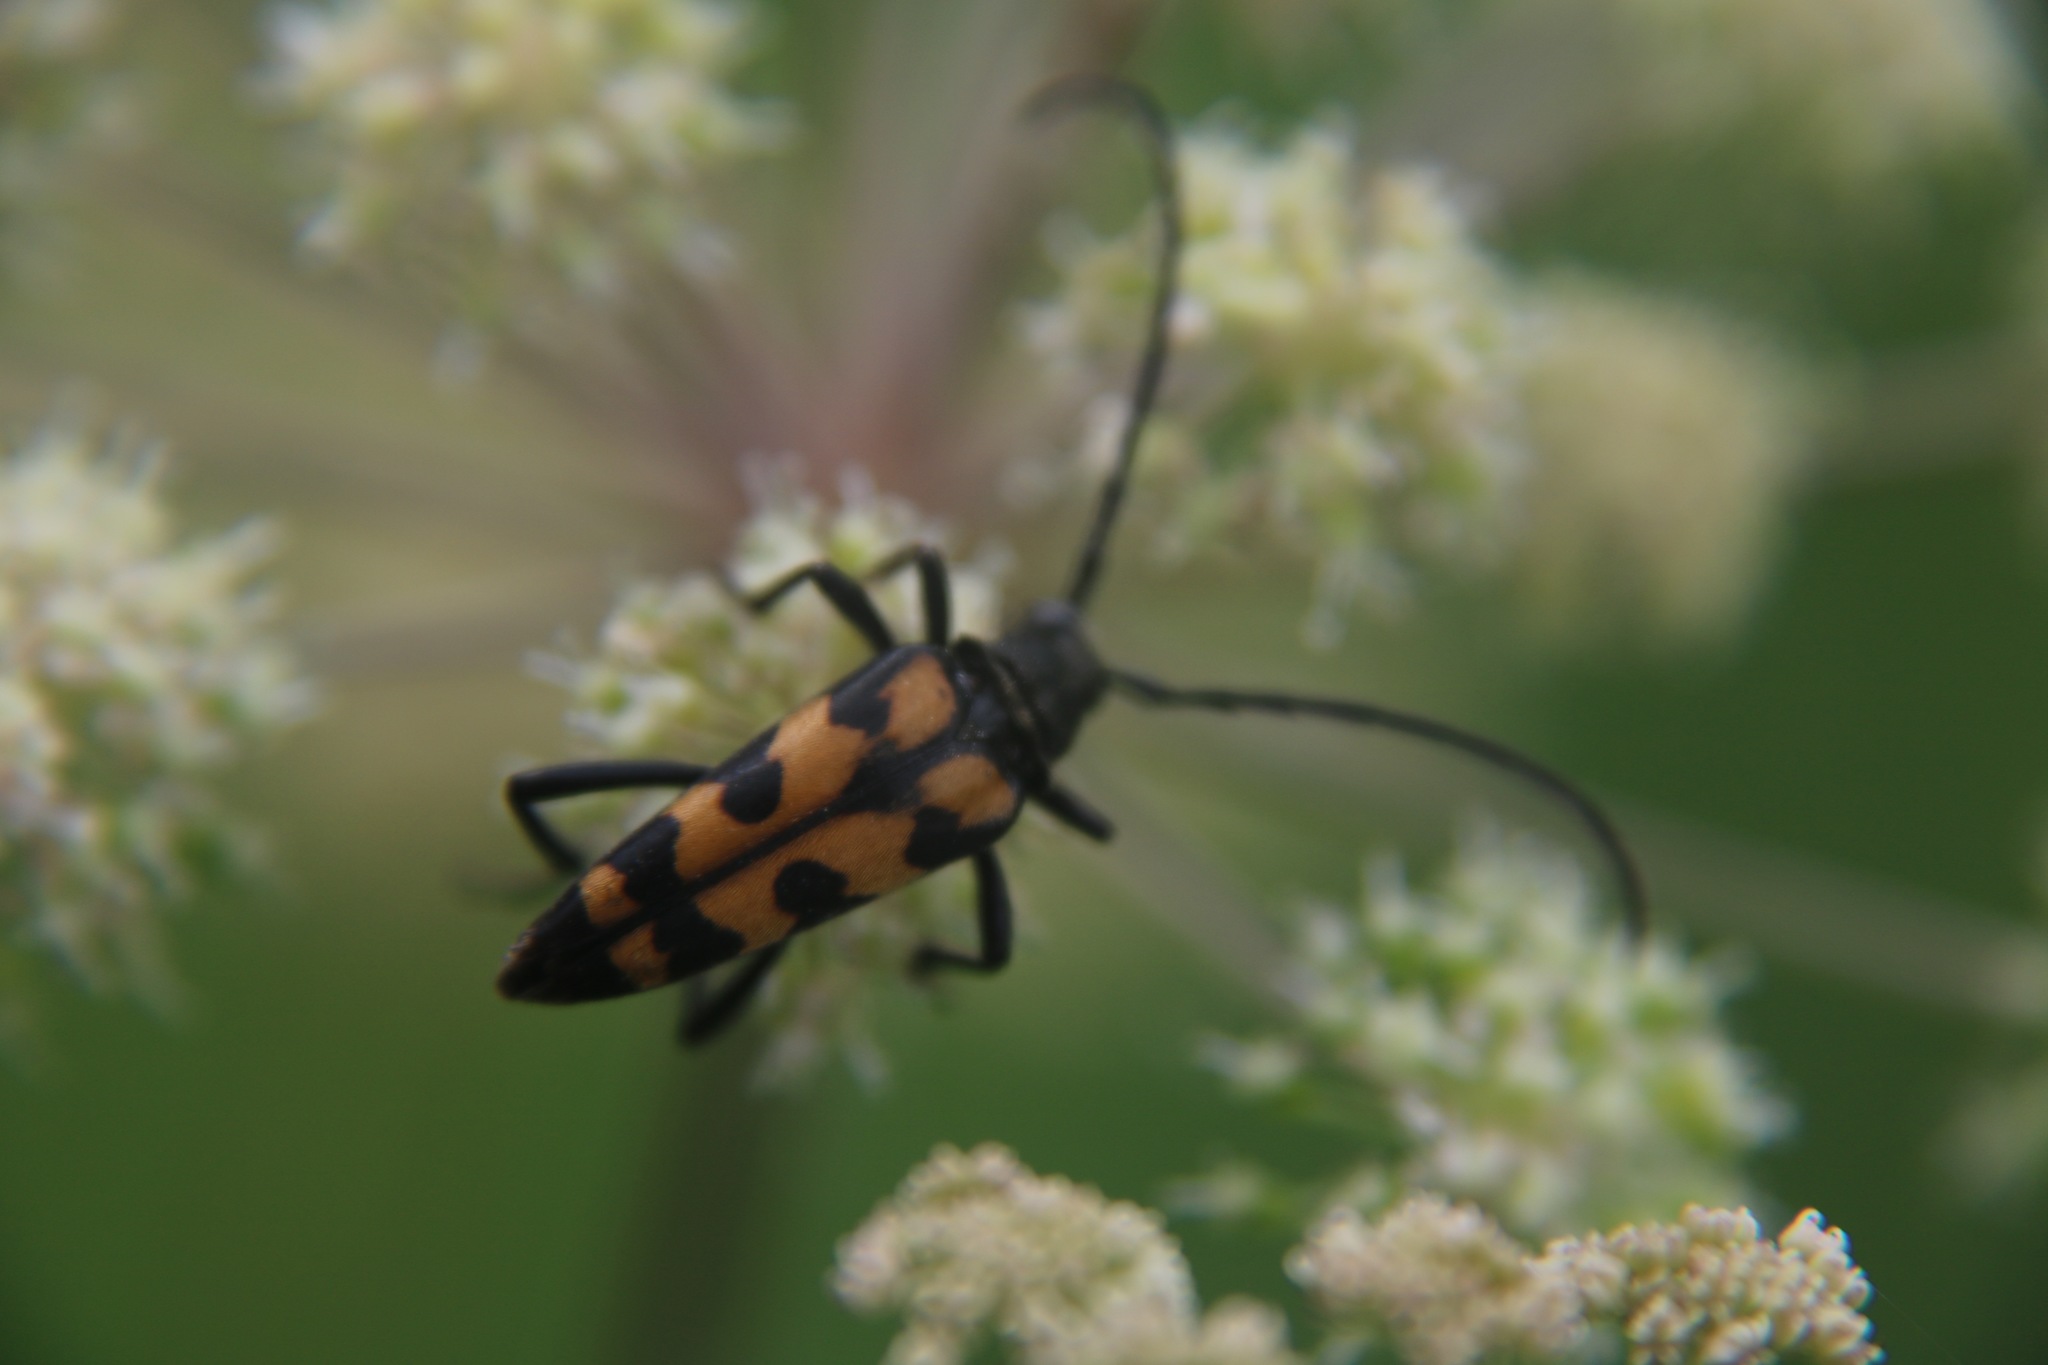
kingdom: Animalia
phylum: Arthropoda
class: Insecta
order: Coleoptera
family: Cerambycidae
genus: Leptura
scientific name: Leptura quadrifasciata
